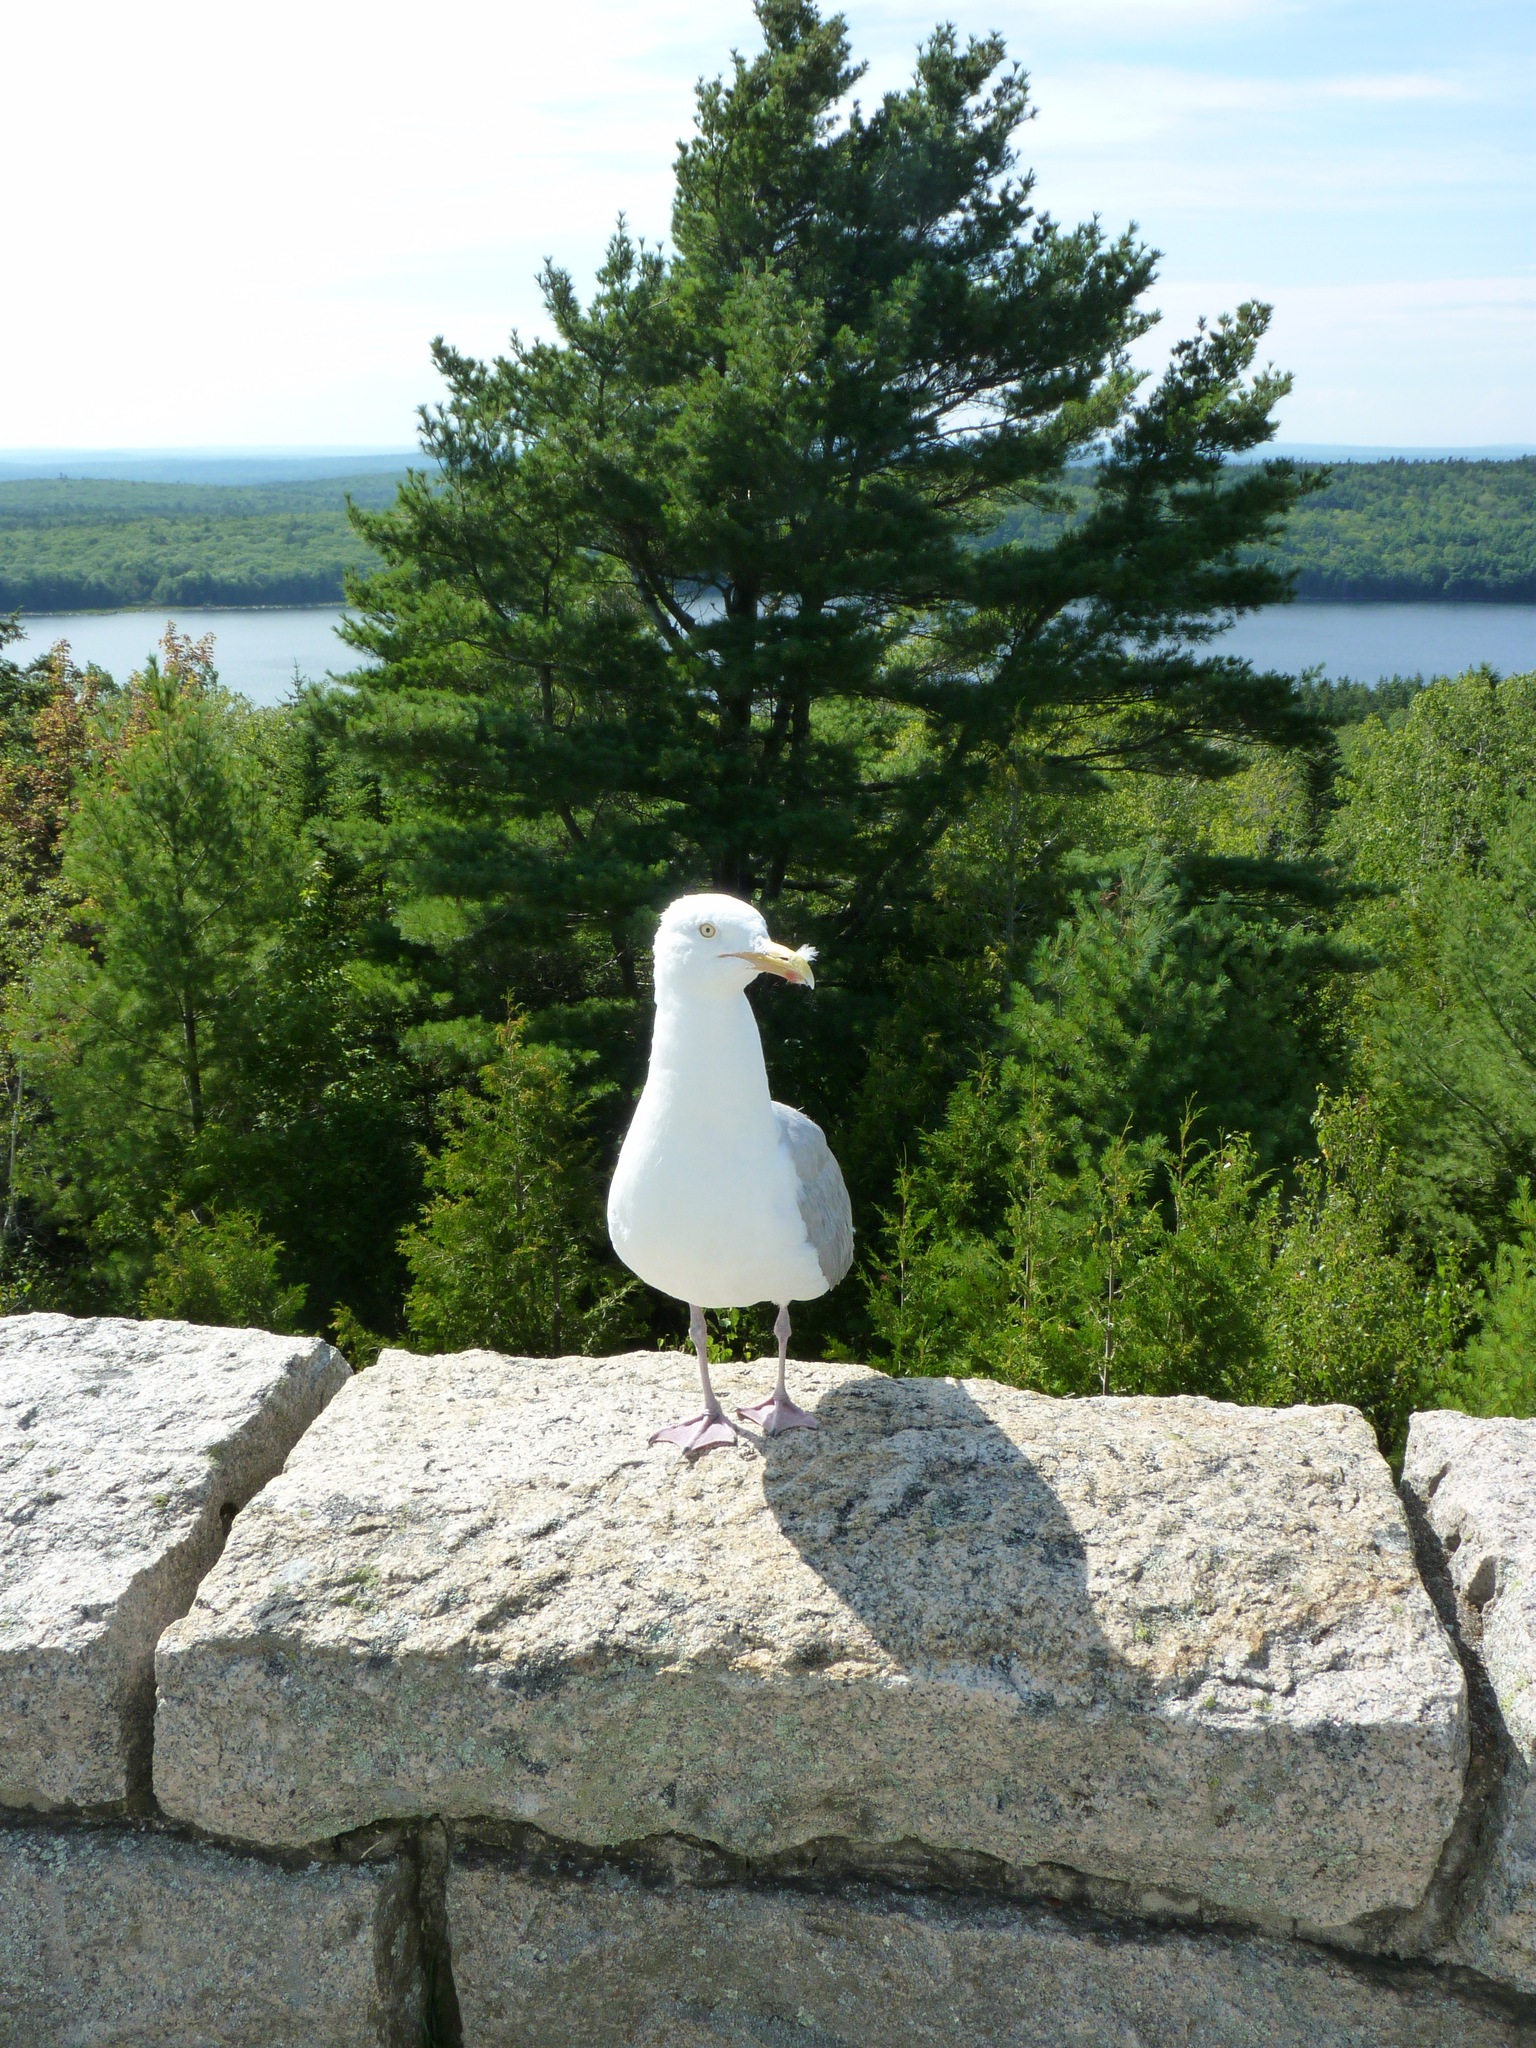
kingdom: Animalia
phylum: Chordata
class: Aves
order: Charadriiformes
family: Laridae
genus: Larus
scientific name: Larus argentatus
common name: Herring gull
